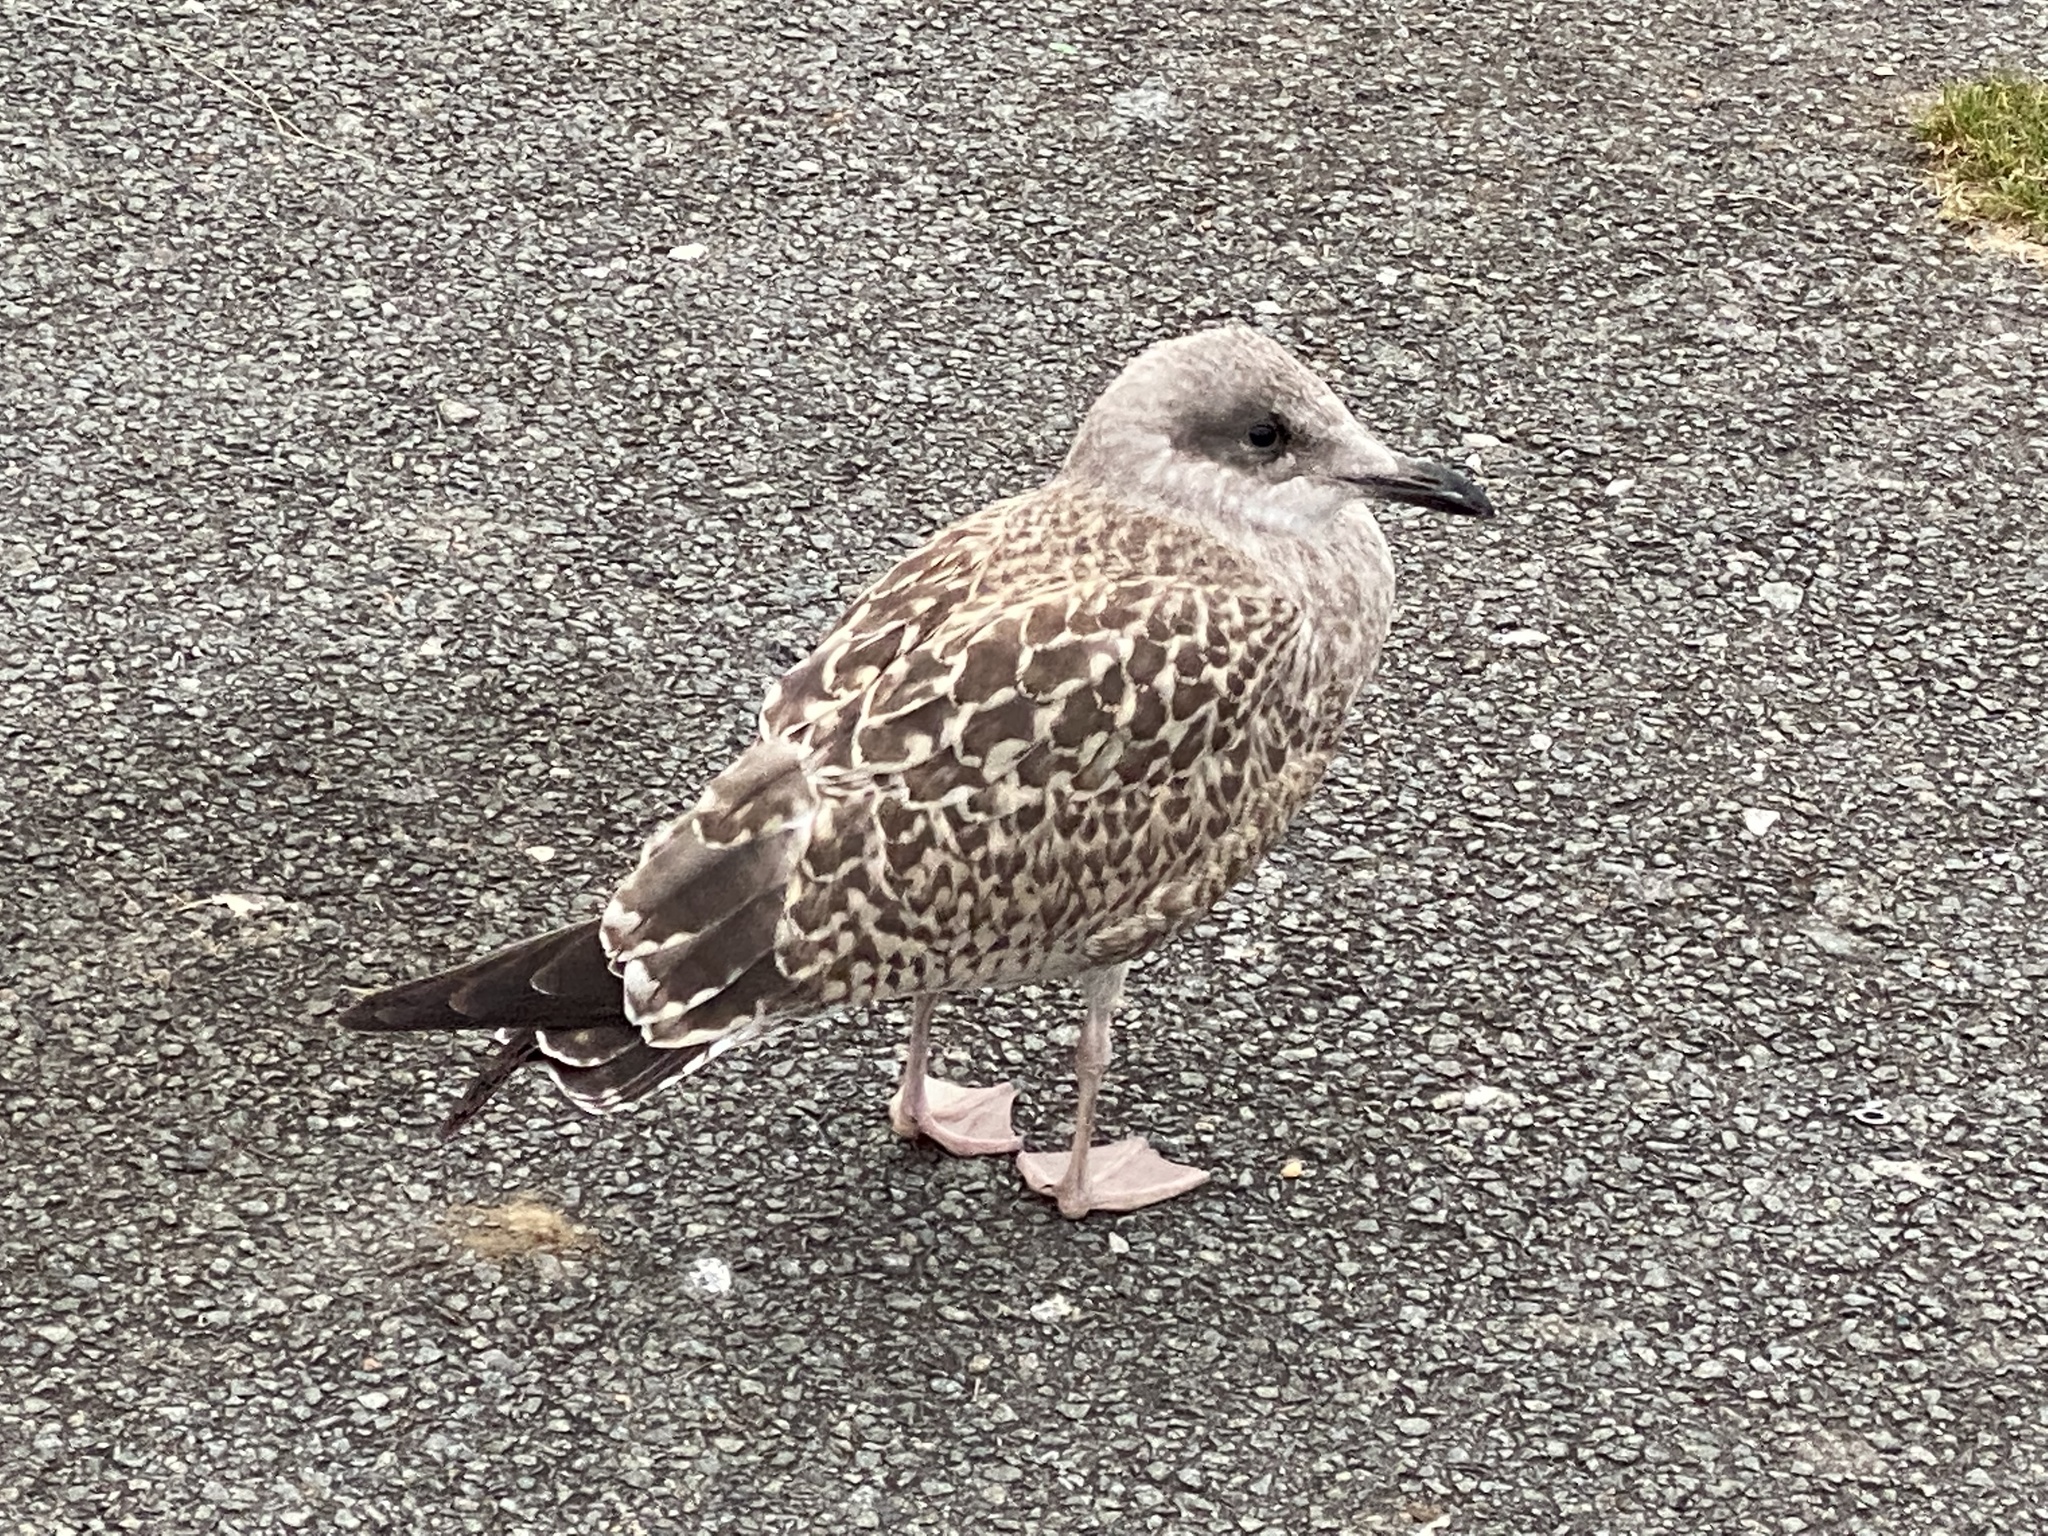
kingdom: Animalia
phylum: Chordata
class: Aves
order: Charadriiformes
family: Laridae
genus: Larus
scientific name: Larus argentatus
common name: Herring gull
